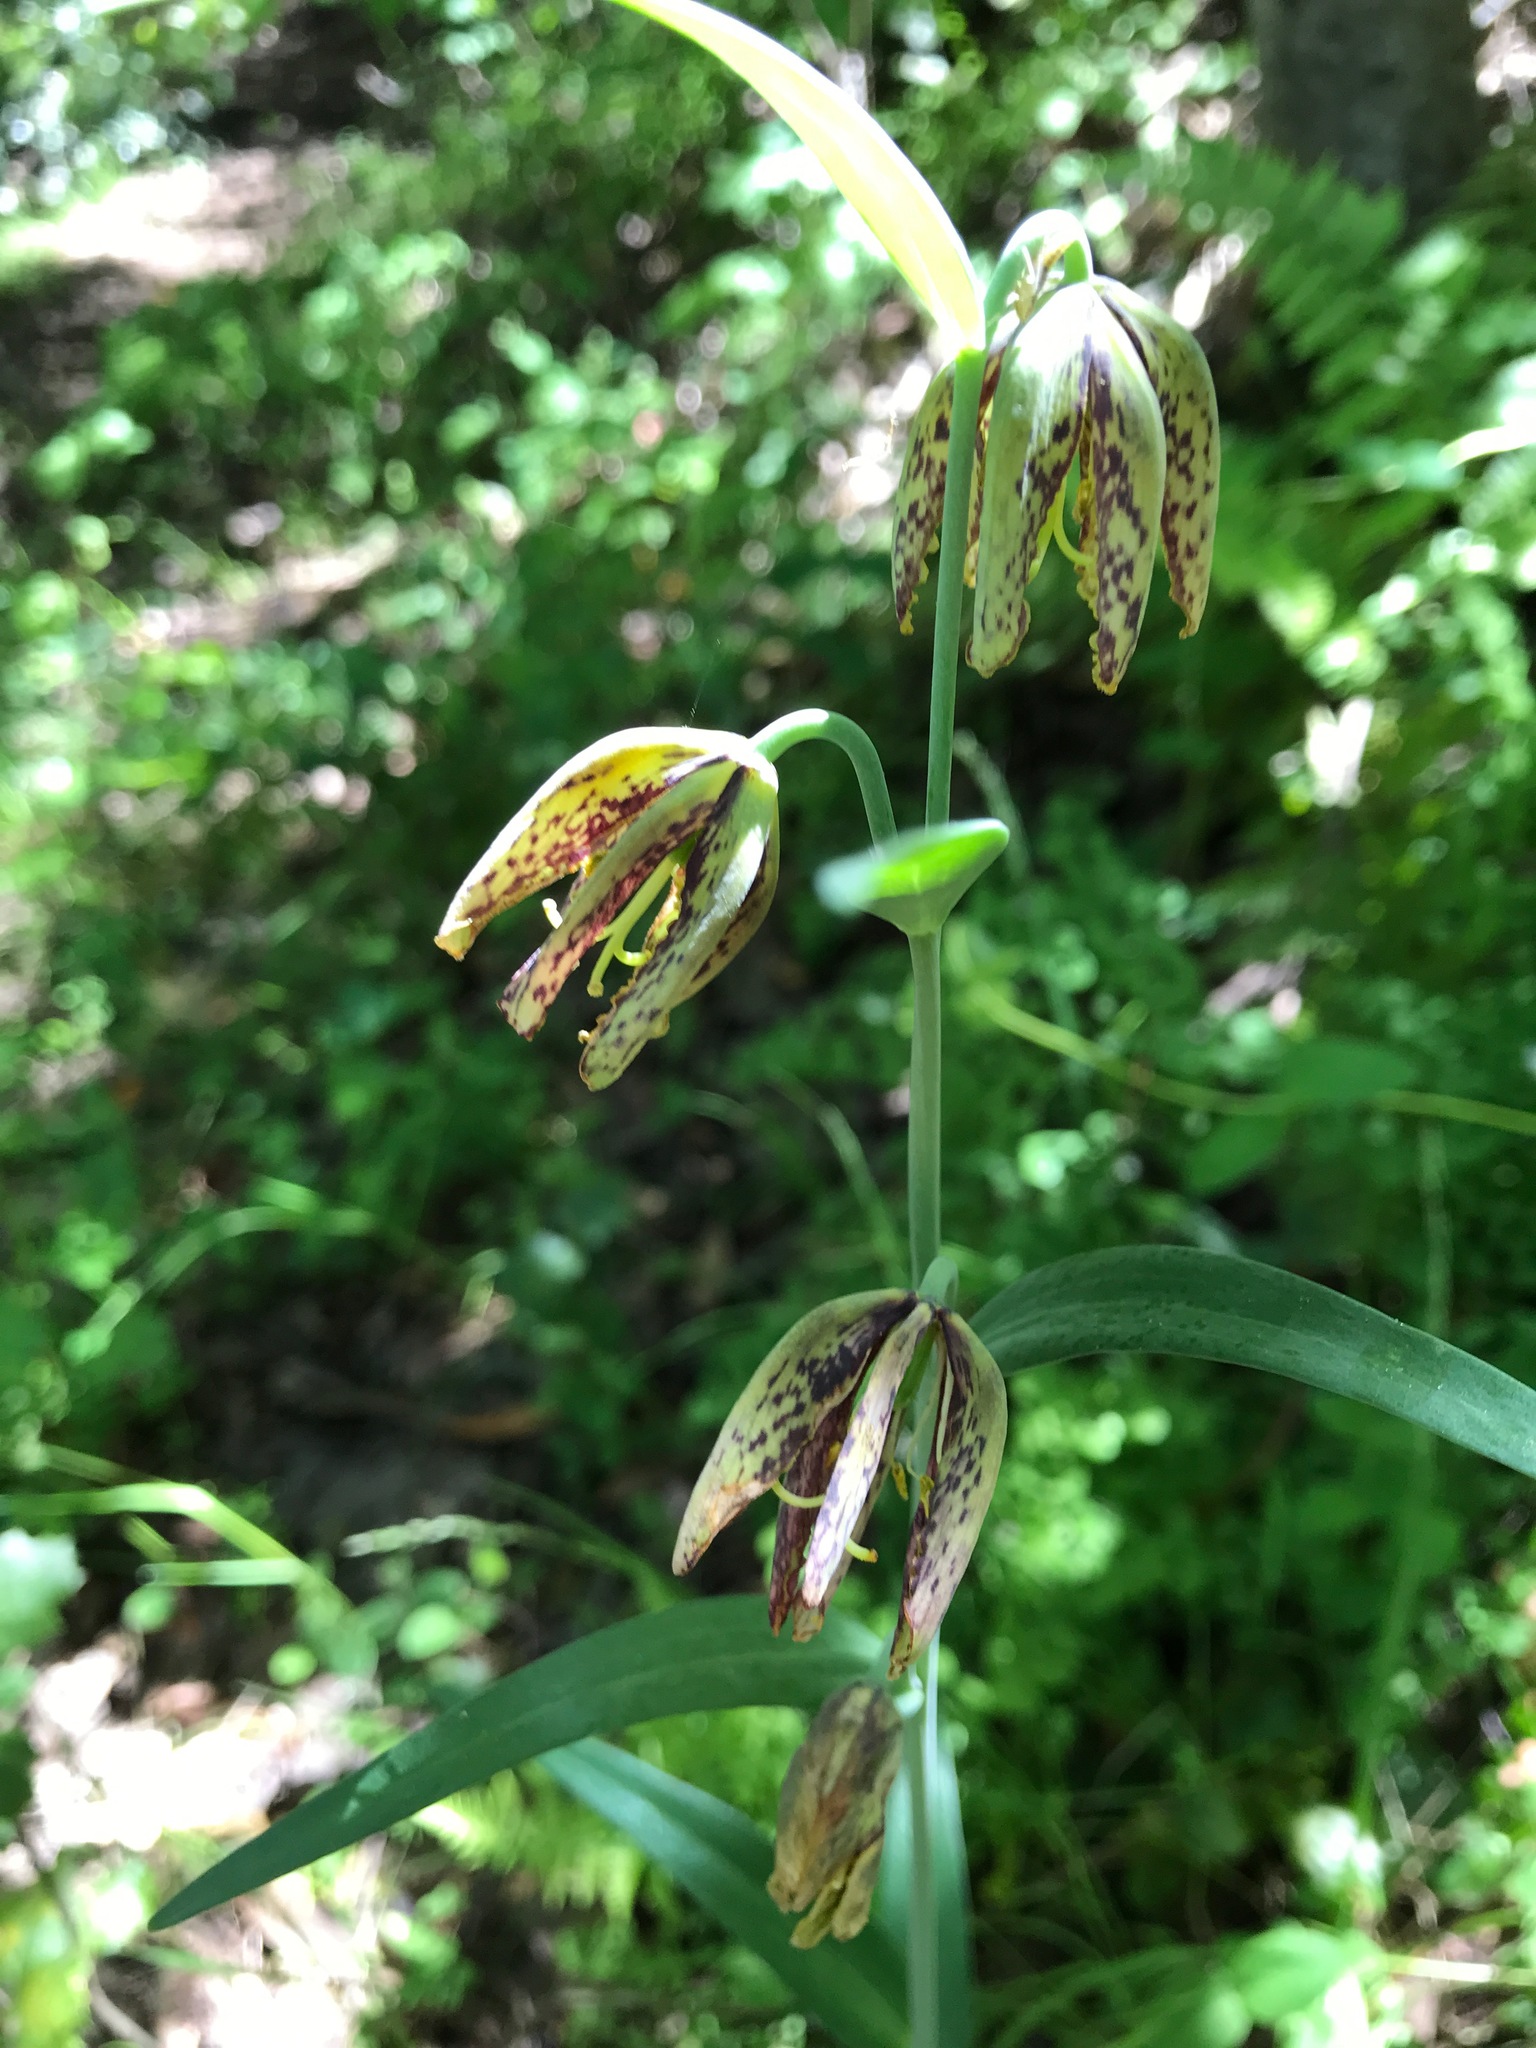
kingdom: Plantae
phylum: Tracheophyta
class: Liliopsida
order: Liliales
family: Liliaceae
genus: Fritillaria
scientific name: Fritillaria affinis
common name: Ojai fritillary
